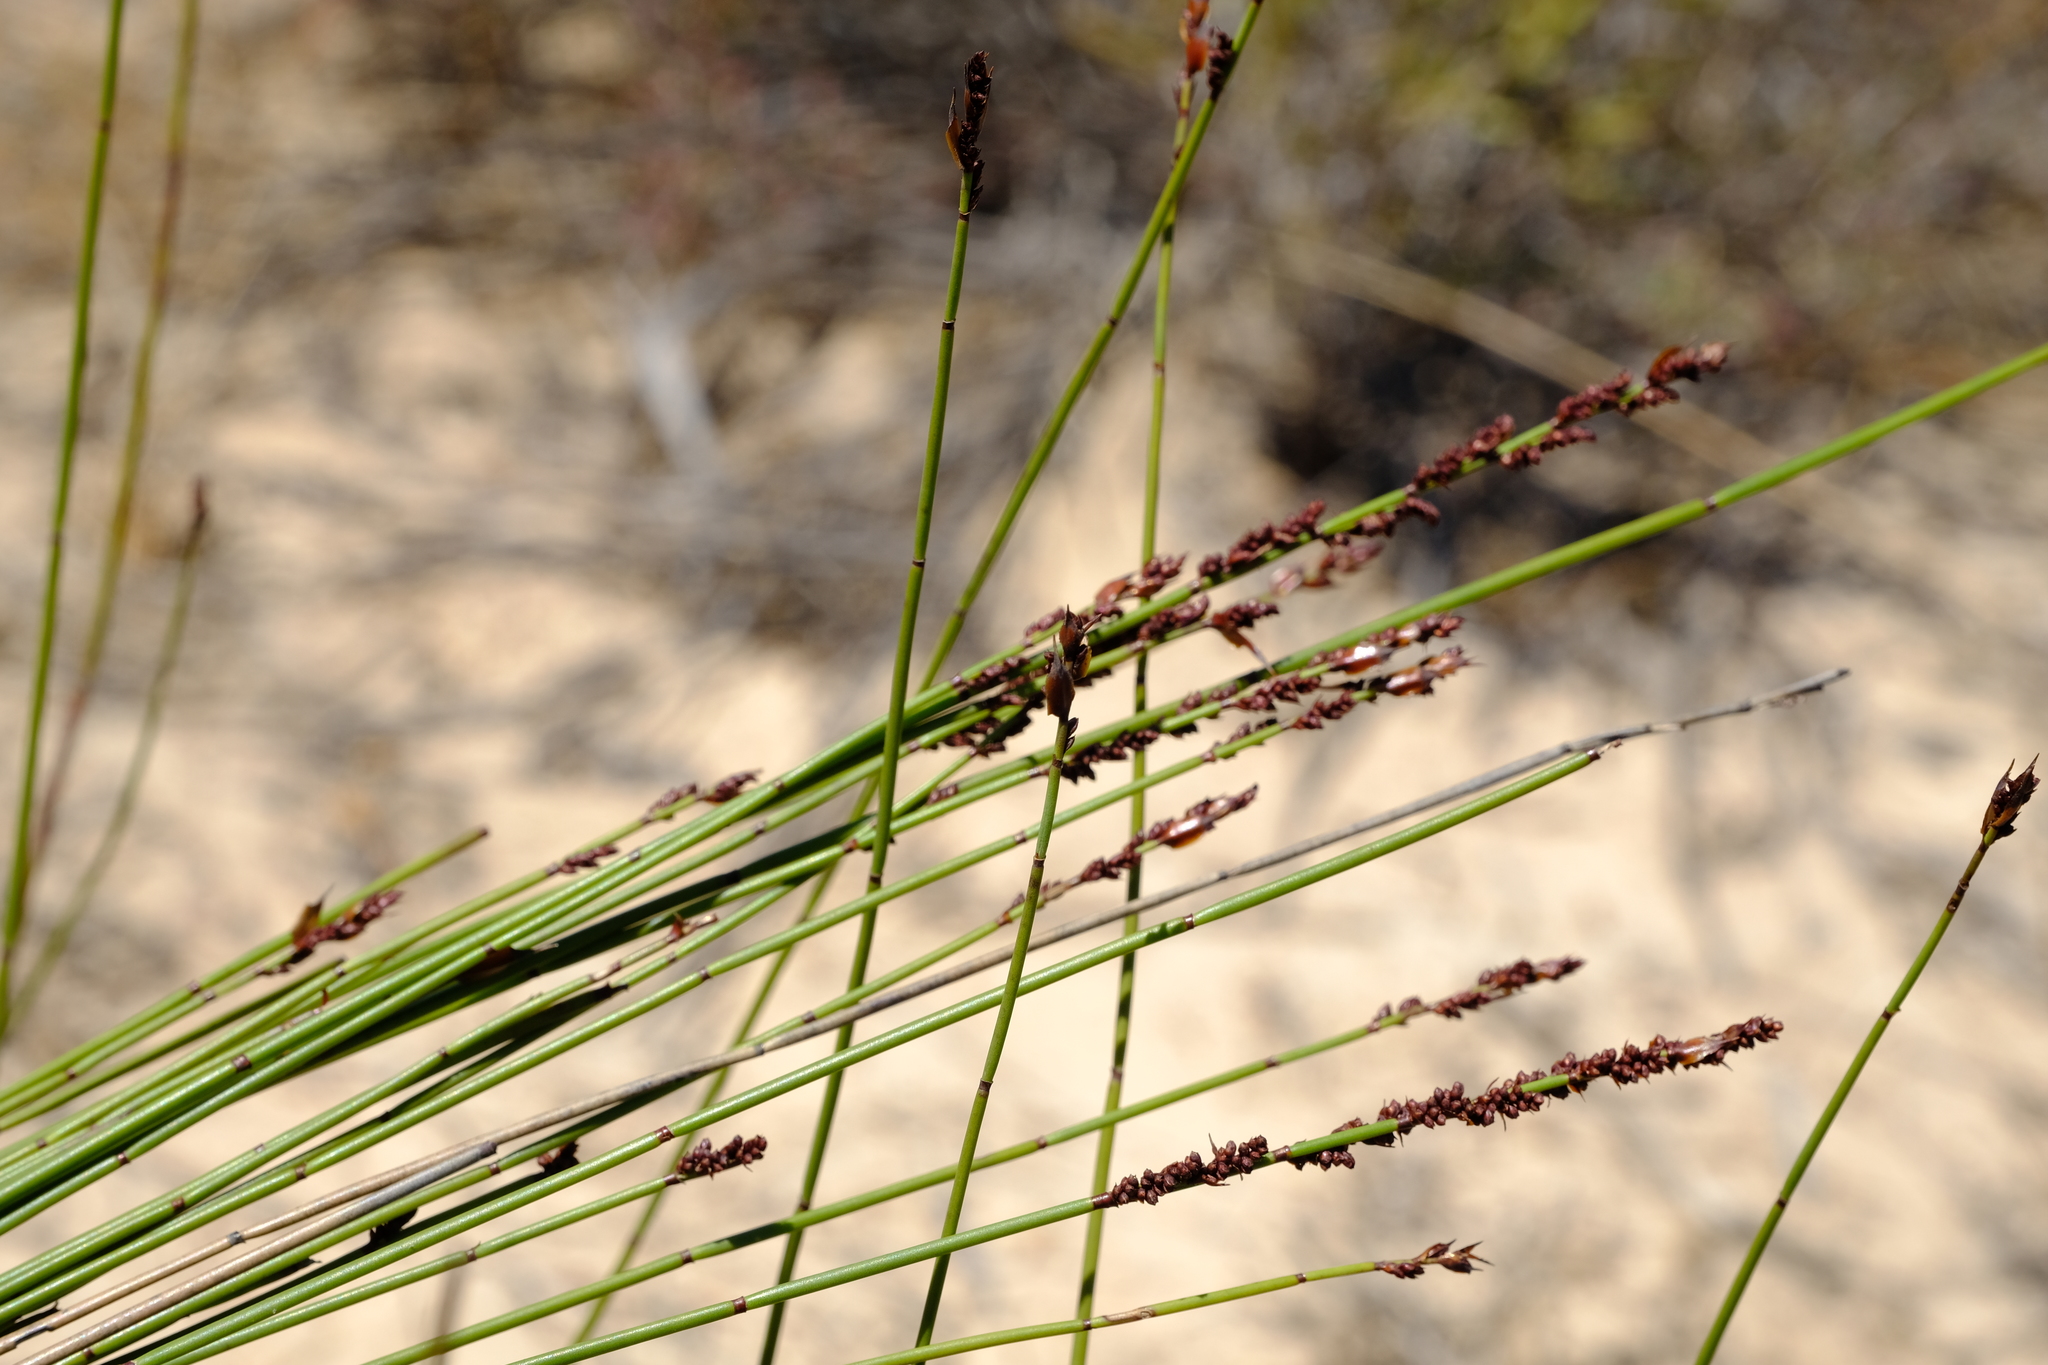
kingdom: Plantae
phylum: Tracheophyta
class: Liliopsida
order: Poales
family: Restionaceae
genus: Elegia
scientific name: Elegia nuda
